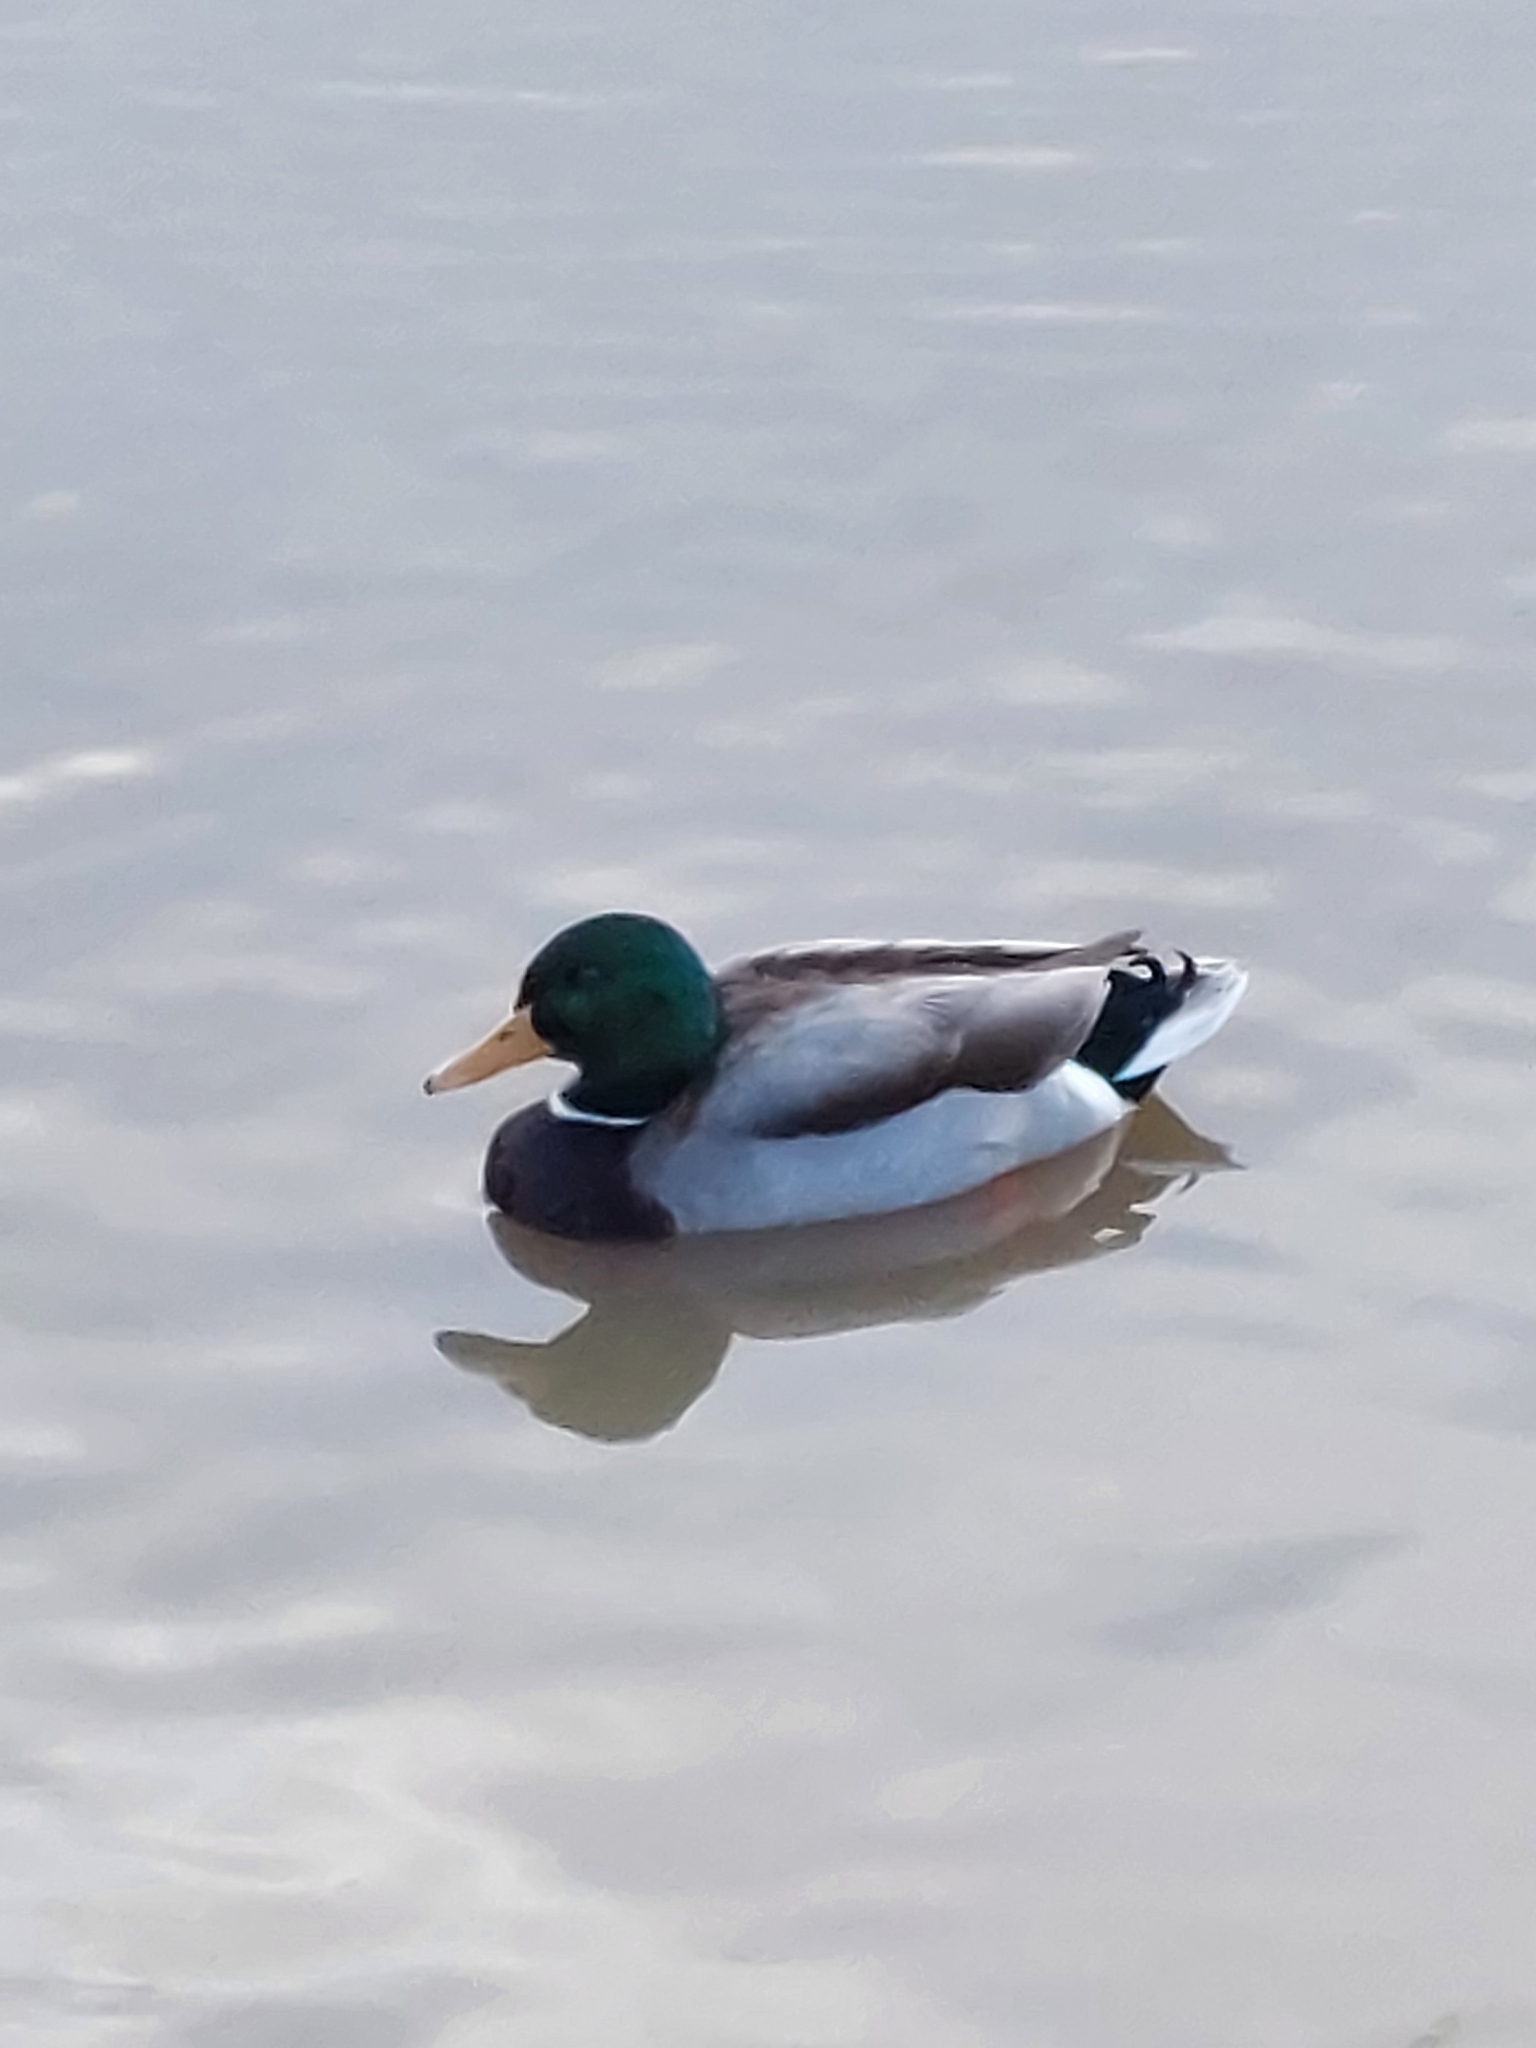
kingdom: Animalia
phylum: Chordata
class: Aves
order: Anseriformes
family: Anatidae
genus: Anas
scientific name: Anas platyrhynchos
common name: Mallard
